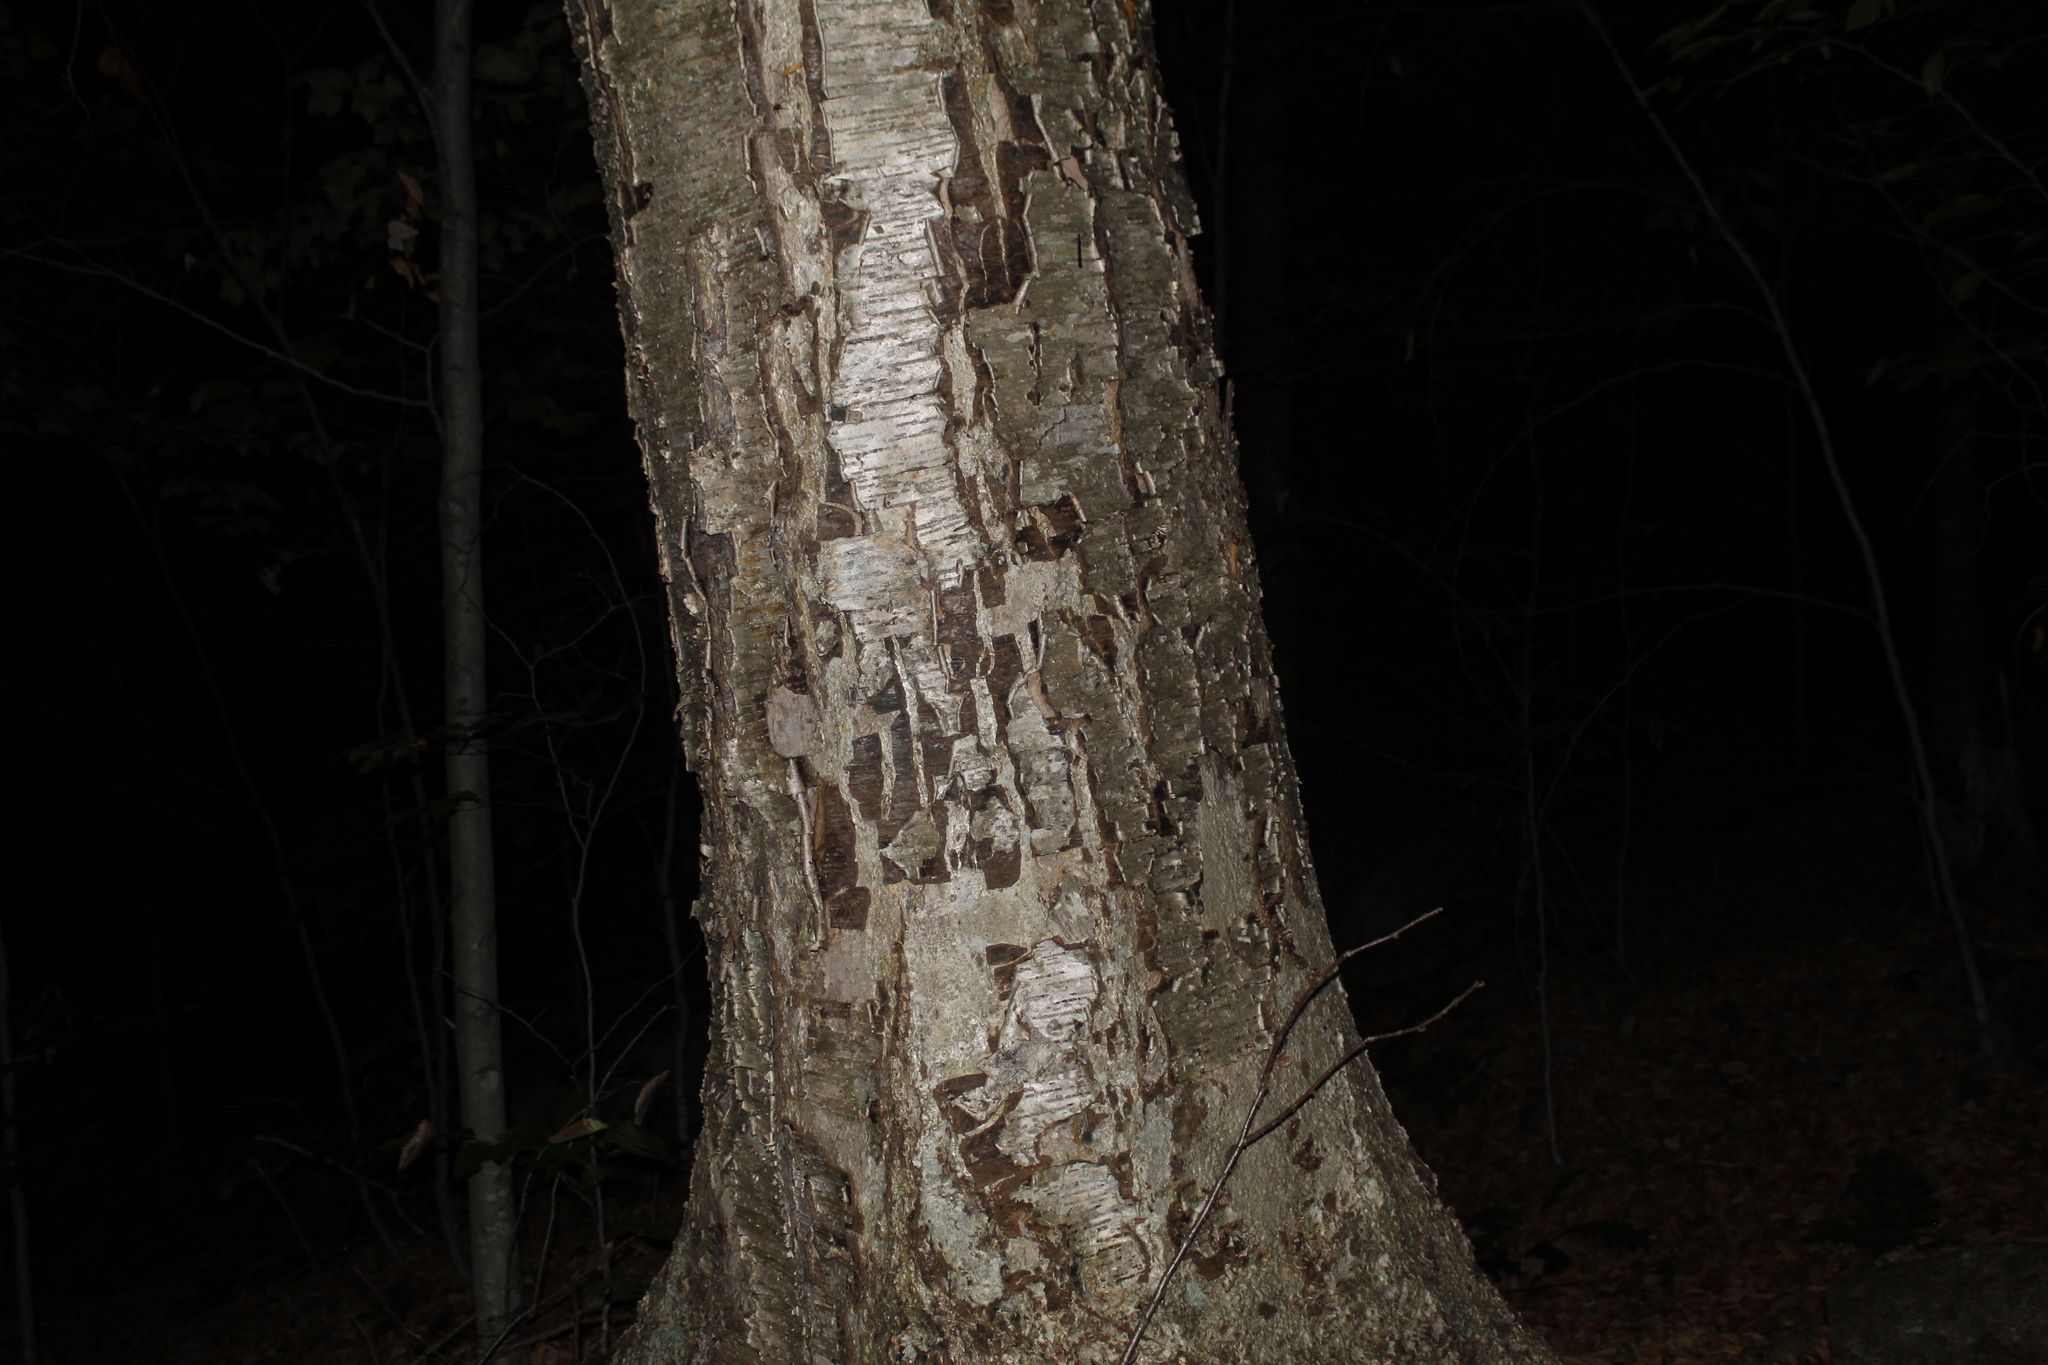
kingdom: Plantae
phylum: Tracheophyta
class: Magnoliopsida
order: Fagales
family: Betulaceae
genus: Betula
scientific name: Betula alleghaniensis
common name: Yellow birch
